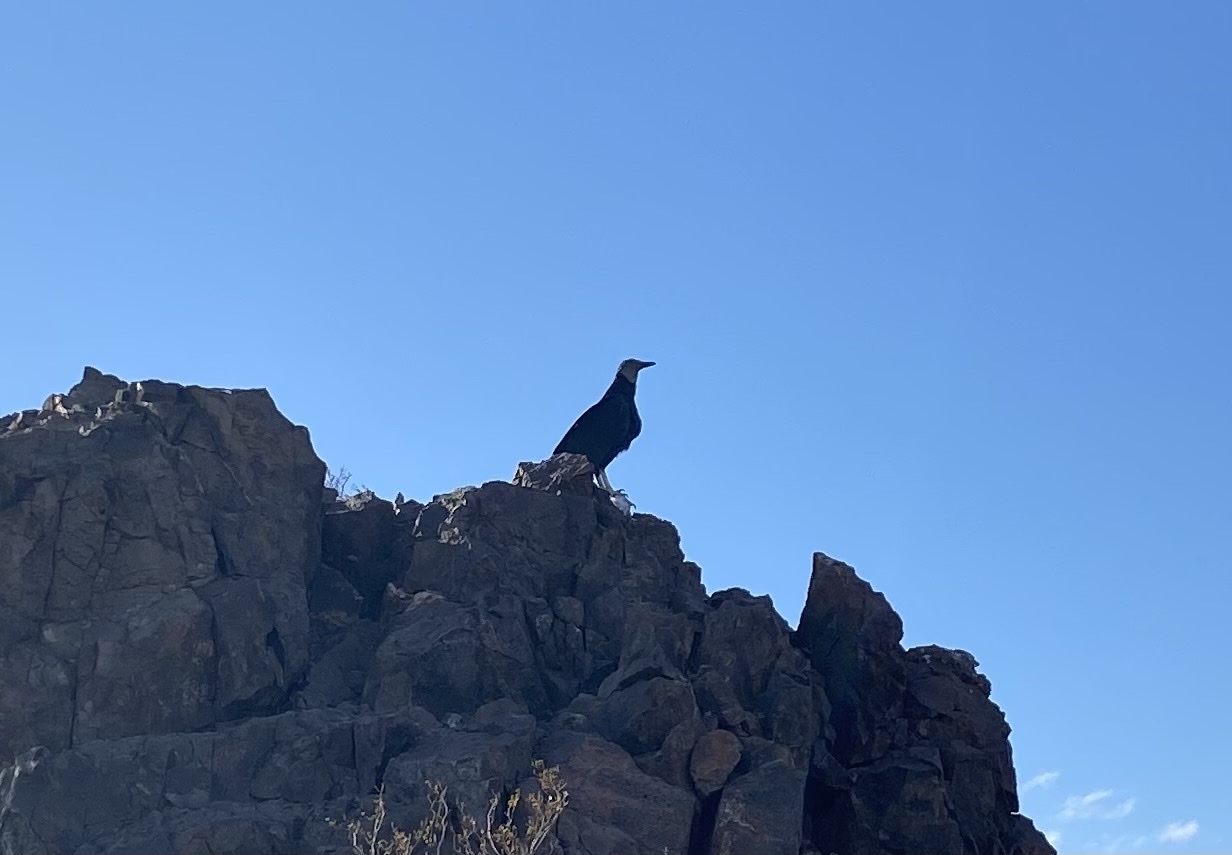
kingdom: Animalia
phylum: Chordata
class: Aves
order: Accipitriformes
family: Cathartidae
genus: Coragyps
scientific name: Coragyps atratus
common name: Black vulture
